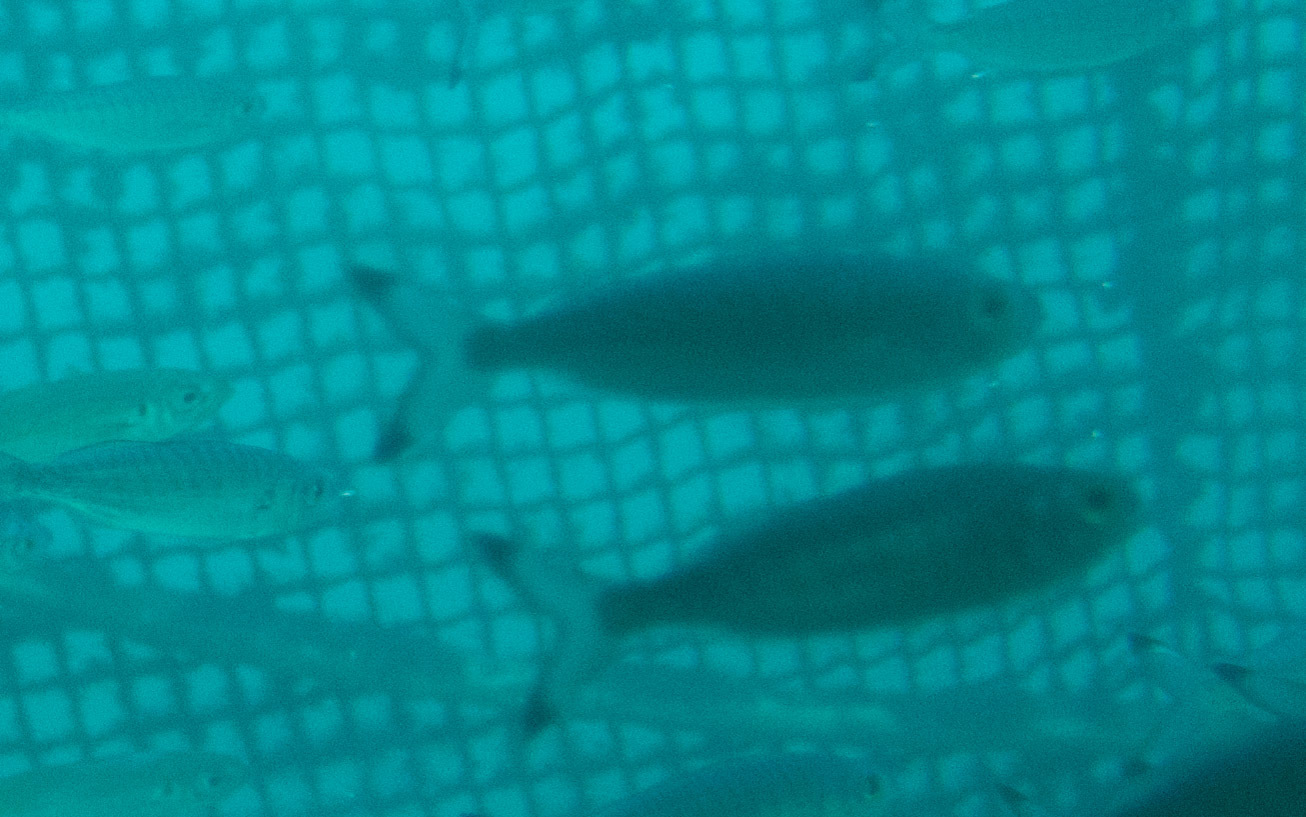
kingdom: Animalia
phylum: Chordata
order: Perciformes
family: Arripidae
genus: Arripis
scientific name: Arripis georgianus
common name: Australian herring
